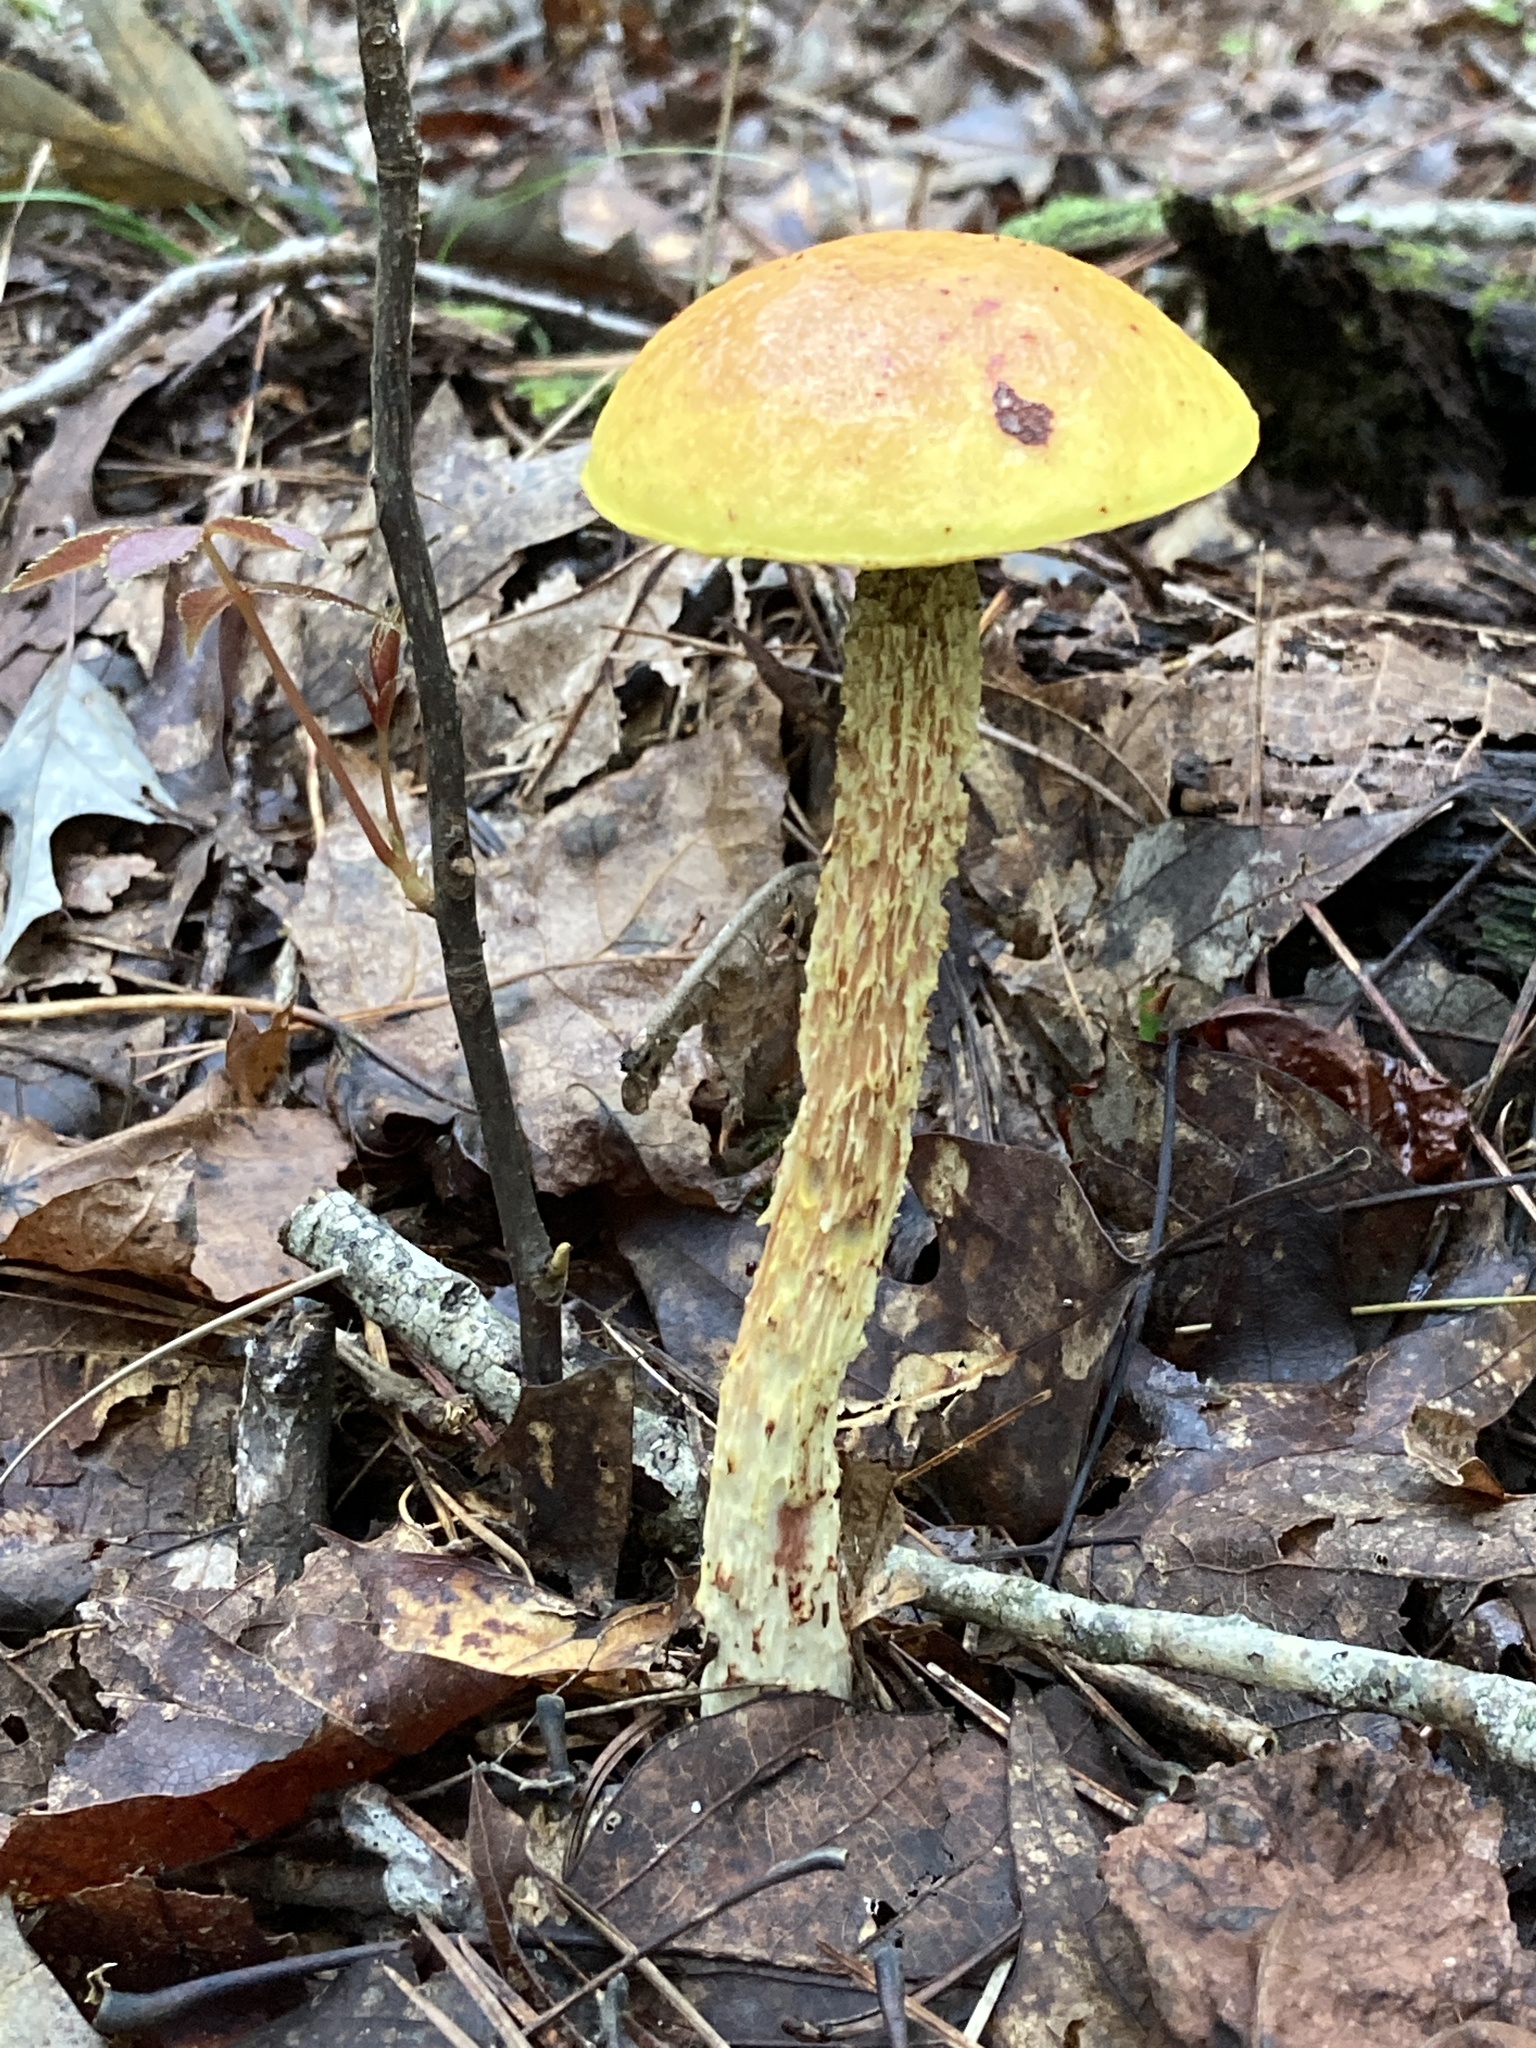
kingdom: Fungi
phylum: Basidiomycota
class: Agaricomycetes
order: Boletales
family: Boletaceae
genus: Aureoboletus
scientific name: Aureoboletus betula
